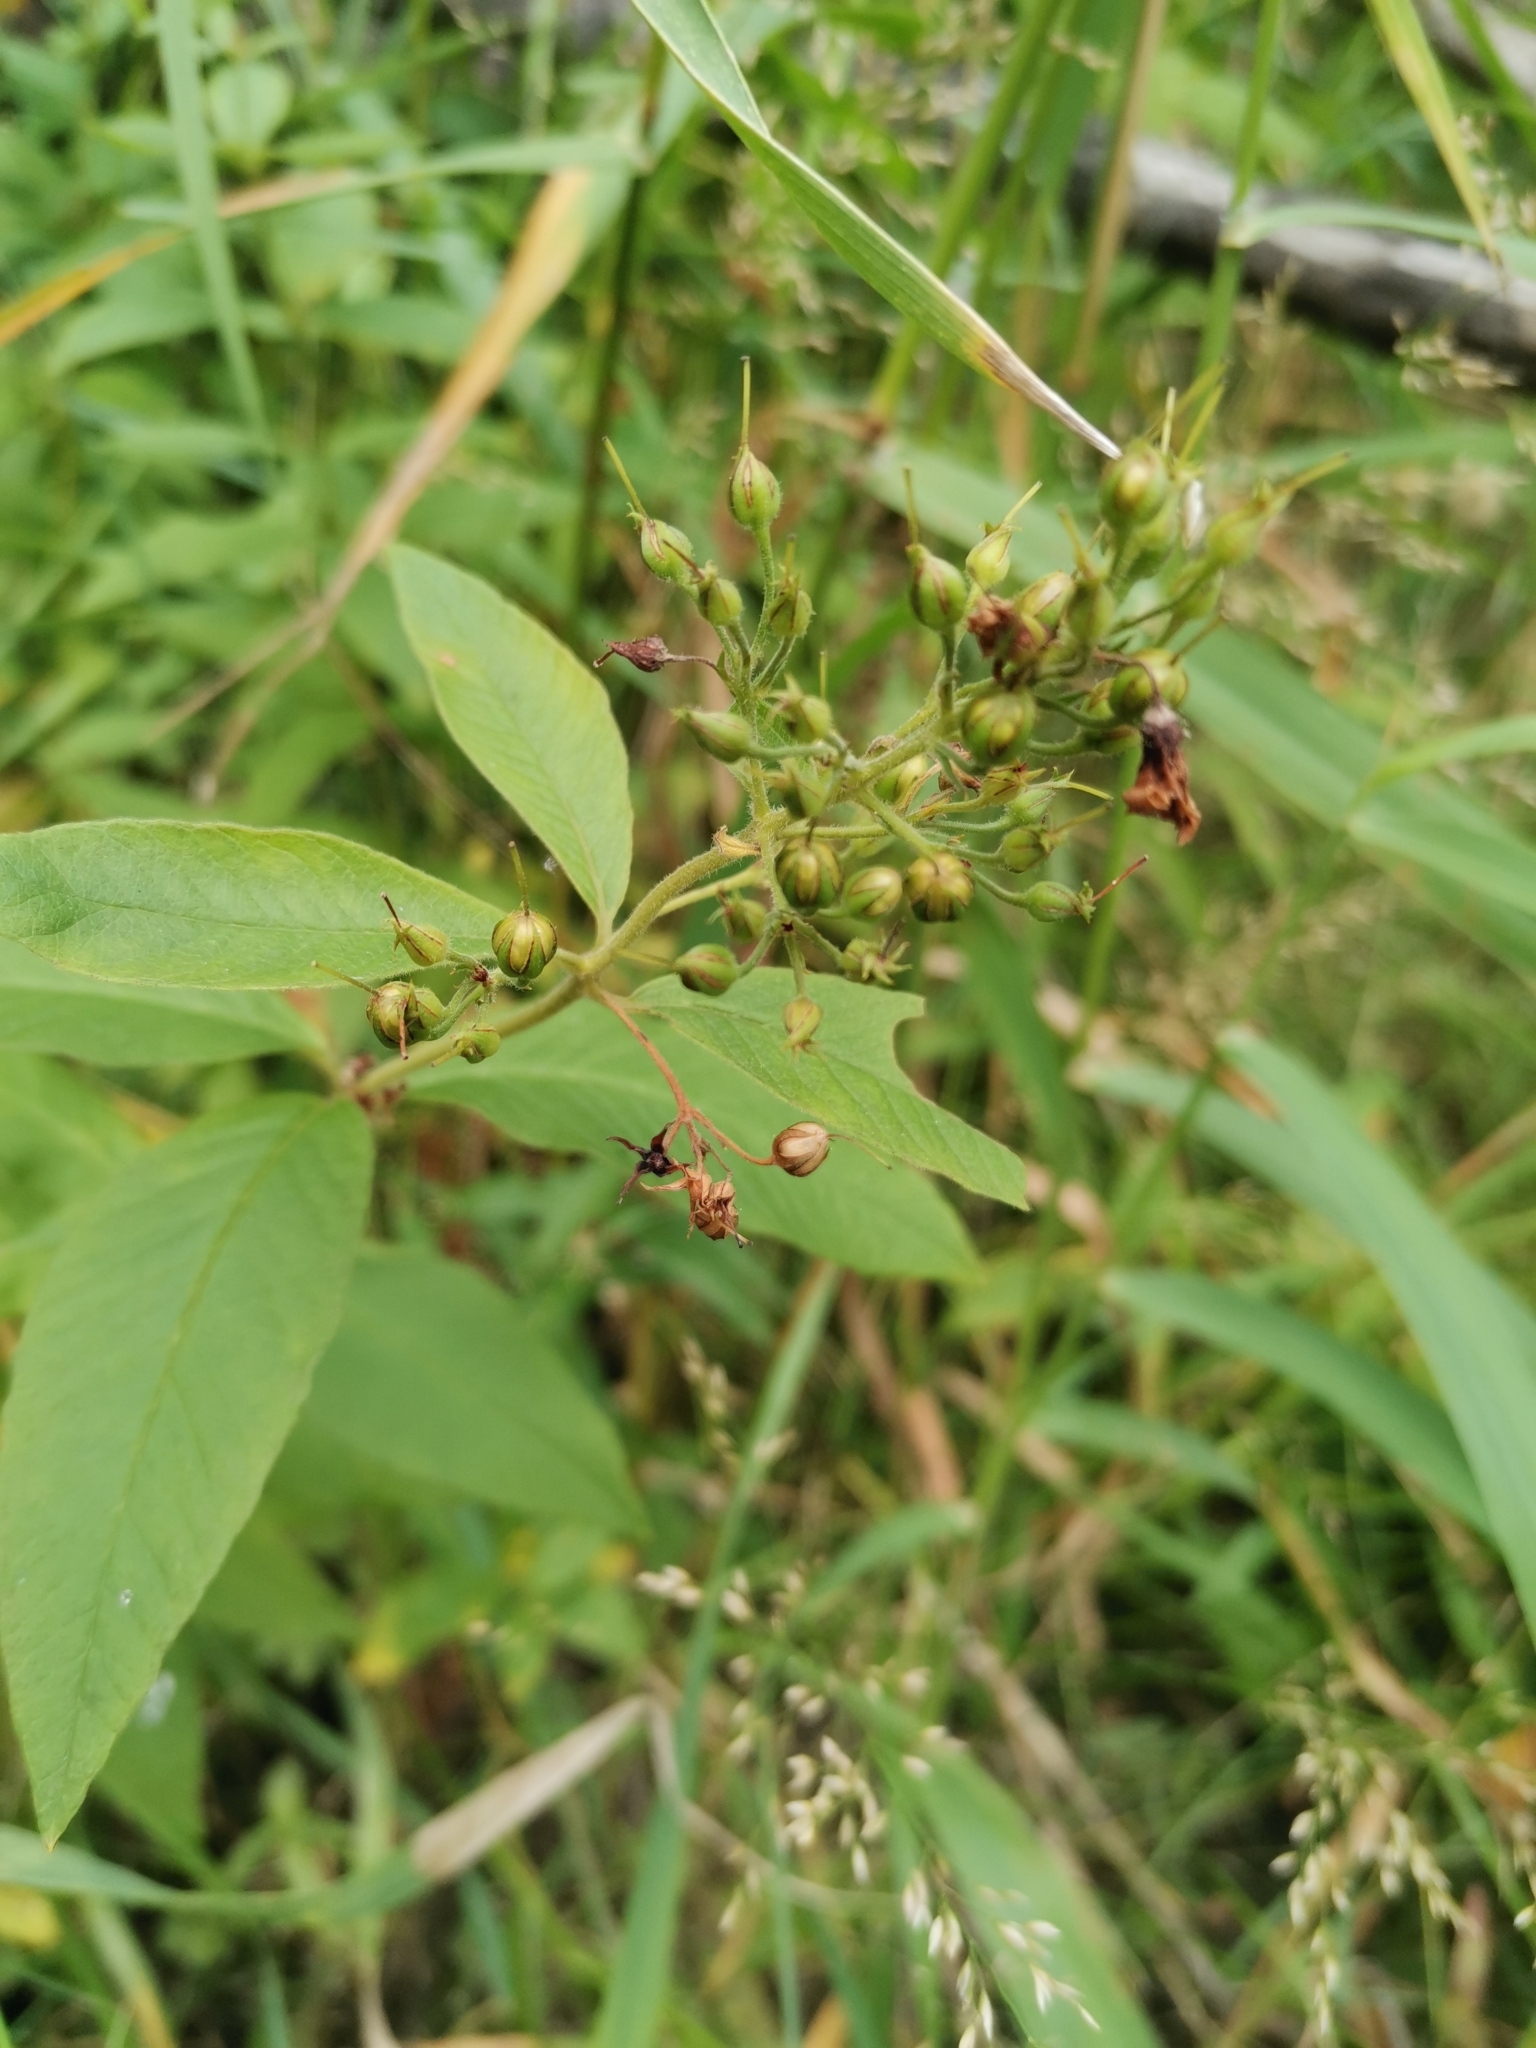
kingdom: Plantae
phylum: Tracheophyta
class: Magnoliopsida
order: Ericales
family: Primulaceae
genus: Lysimachia
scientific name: Lysimachia vulgaris
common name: Yellow loosestrife
